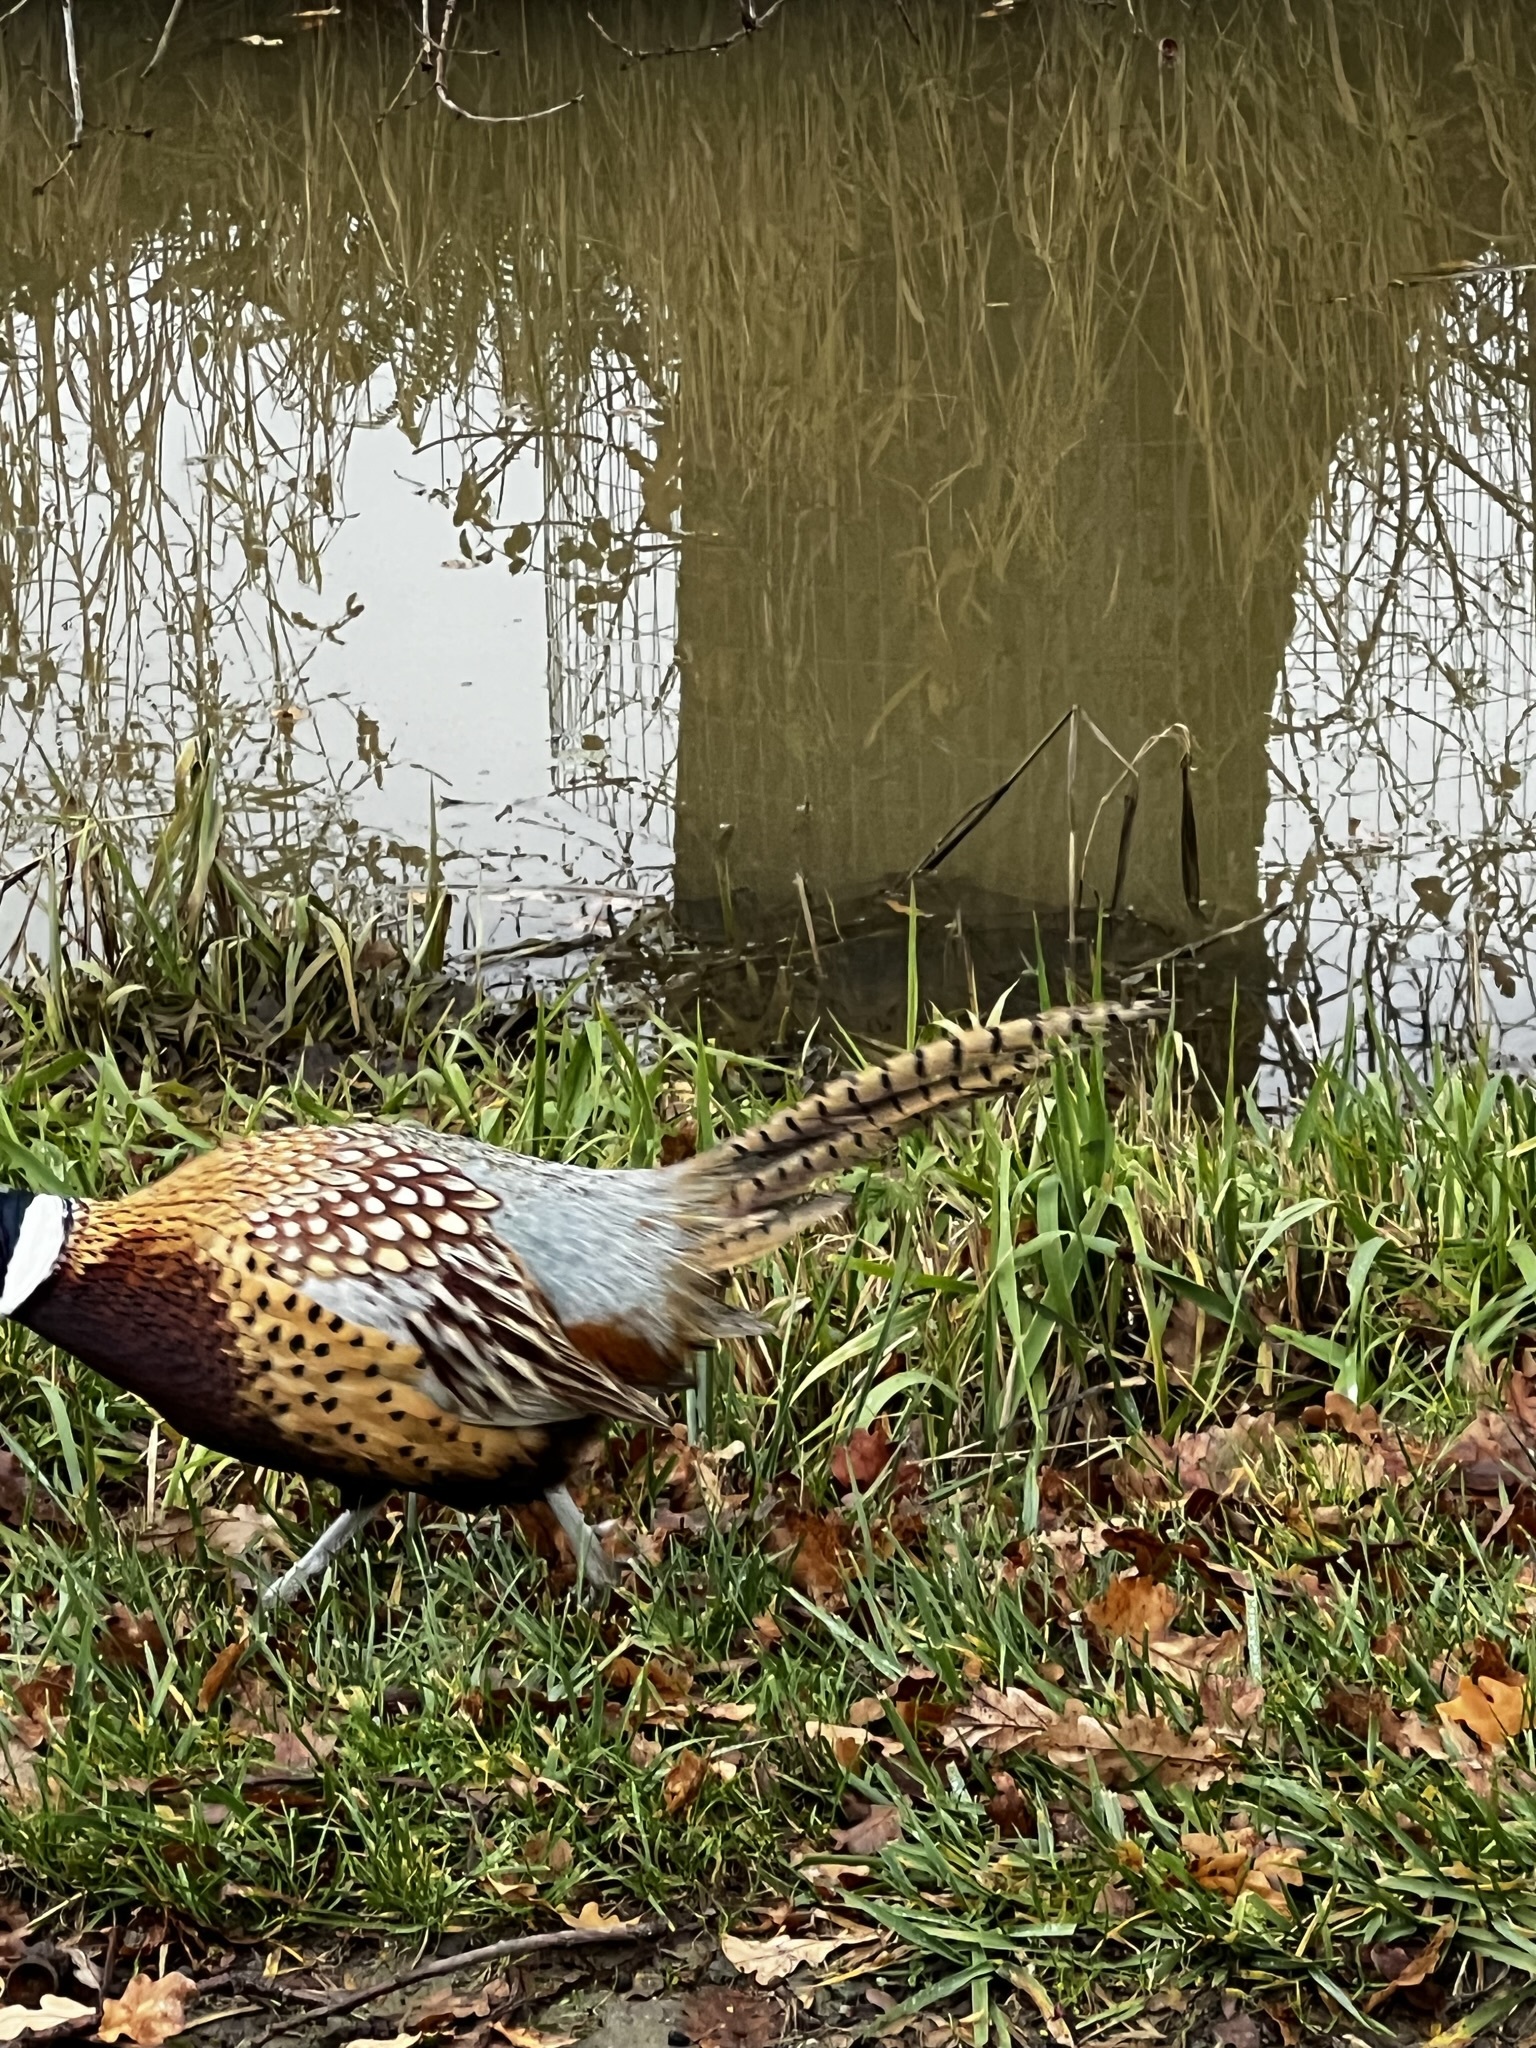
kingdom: Animalia
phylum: Chordata
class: Aves
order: Galliformes
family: Phasianidae
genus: Phasianus
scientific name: Phasianus colchicus
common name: Common pheasant
